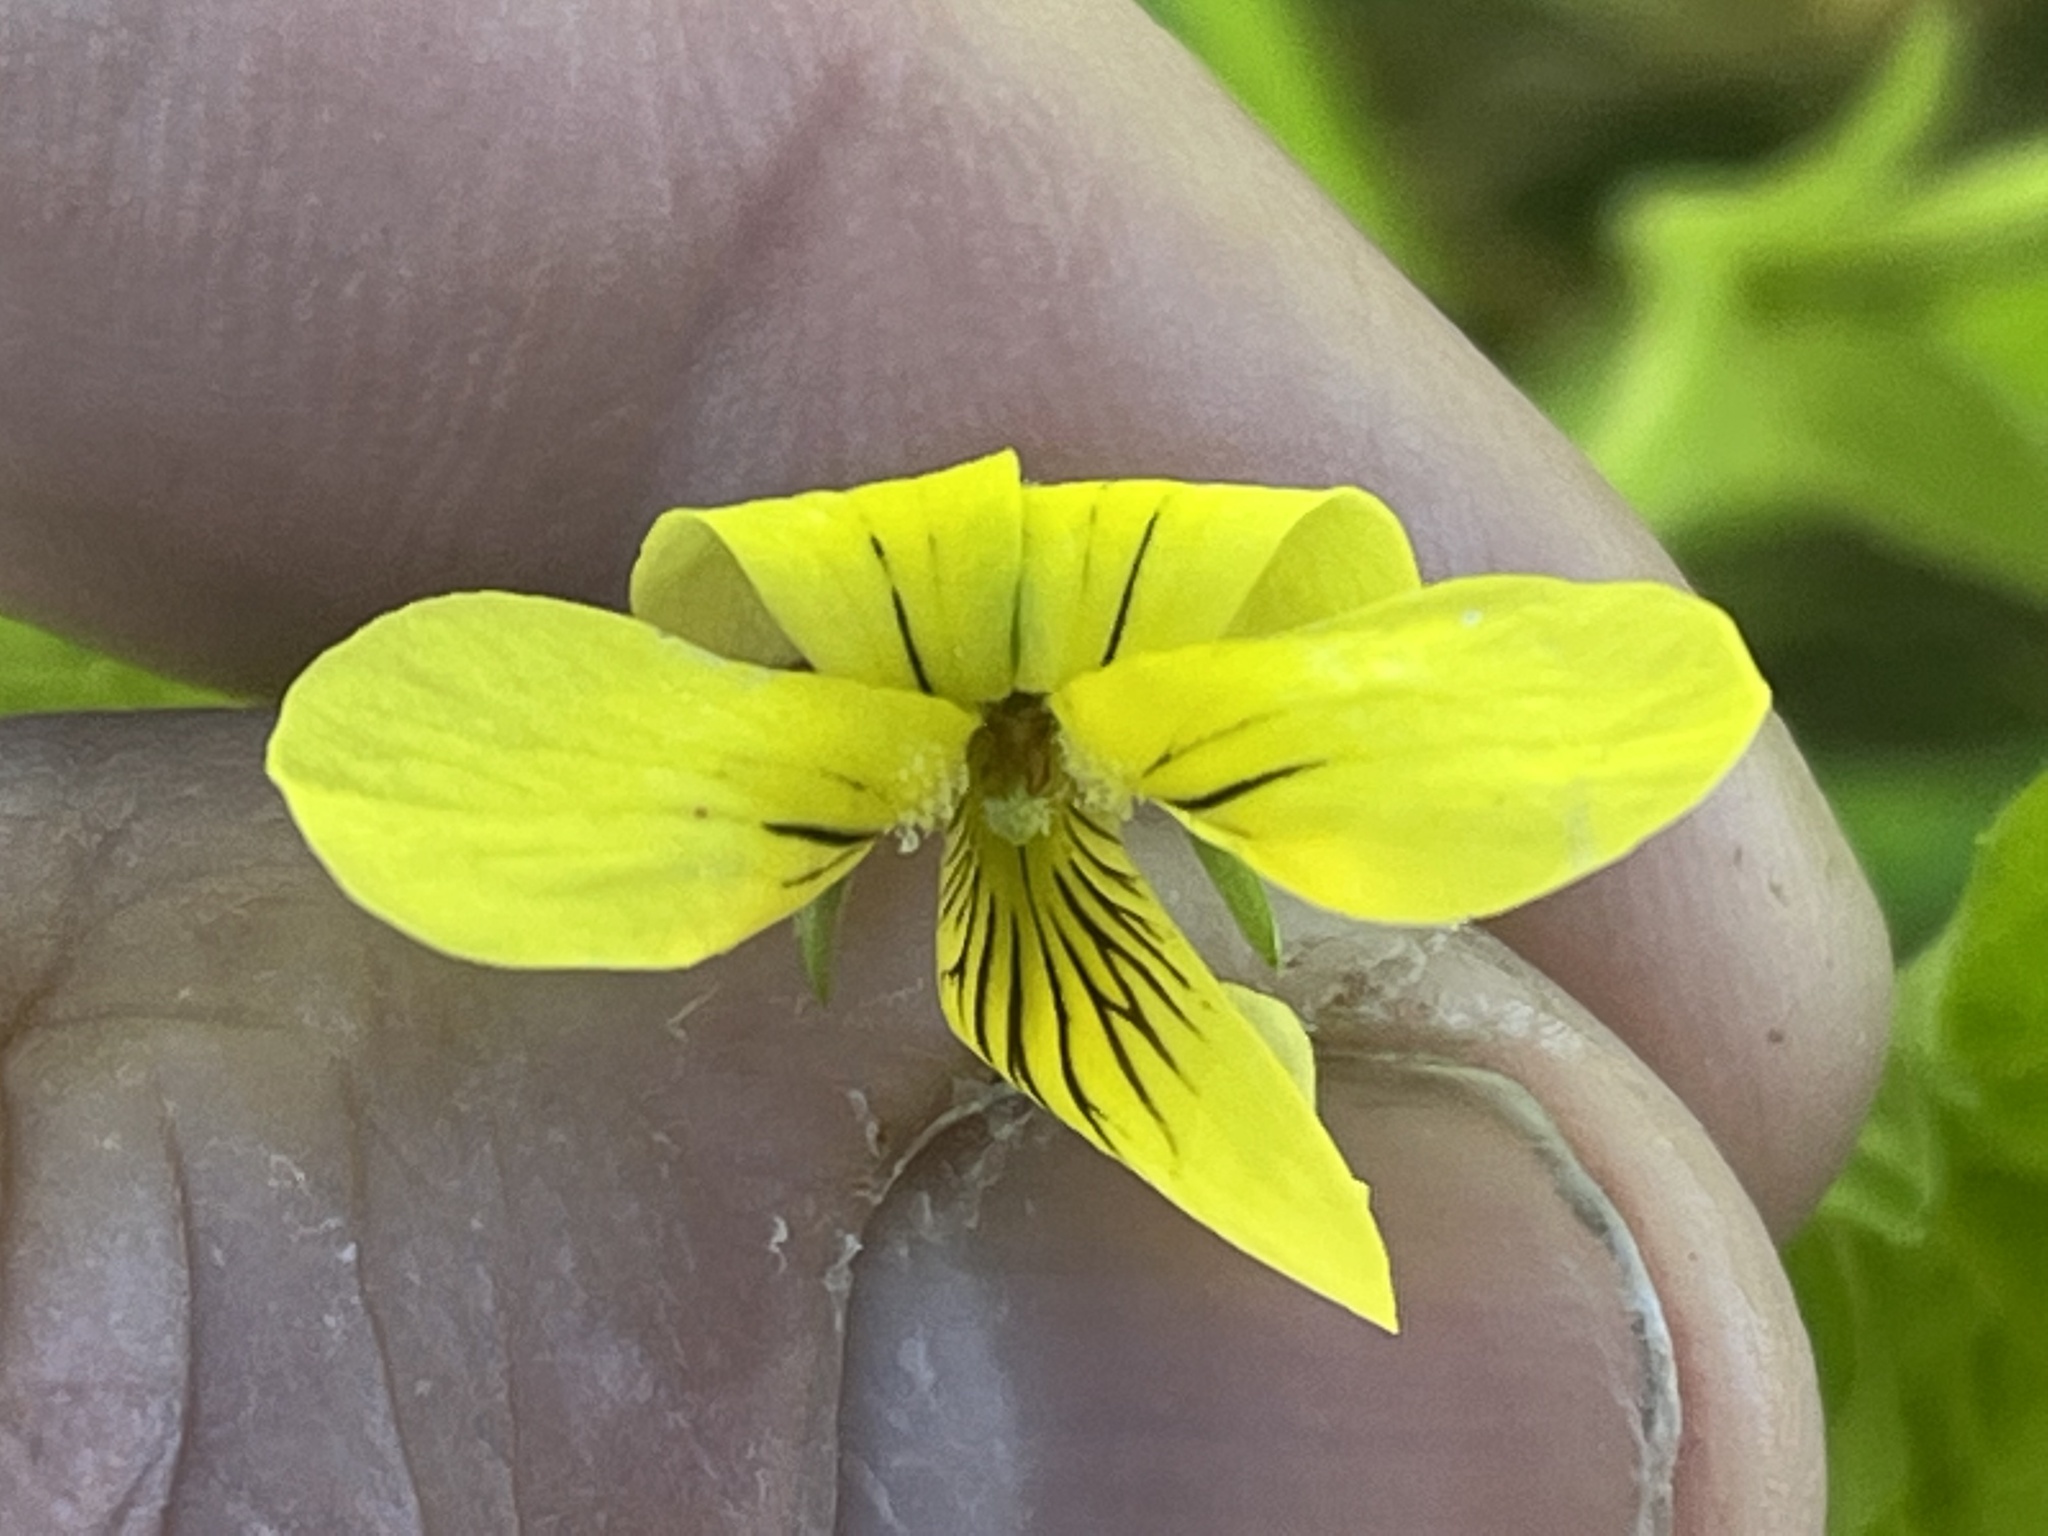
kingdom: Plantae
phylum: Tracheophyta
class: Magnoliopsida
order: Malpighiales
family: Violaceae
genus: Viola
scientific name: Viola eriocarpa
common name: Smooth yellow violet
